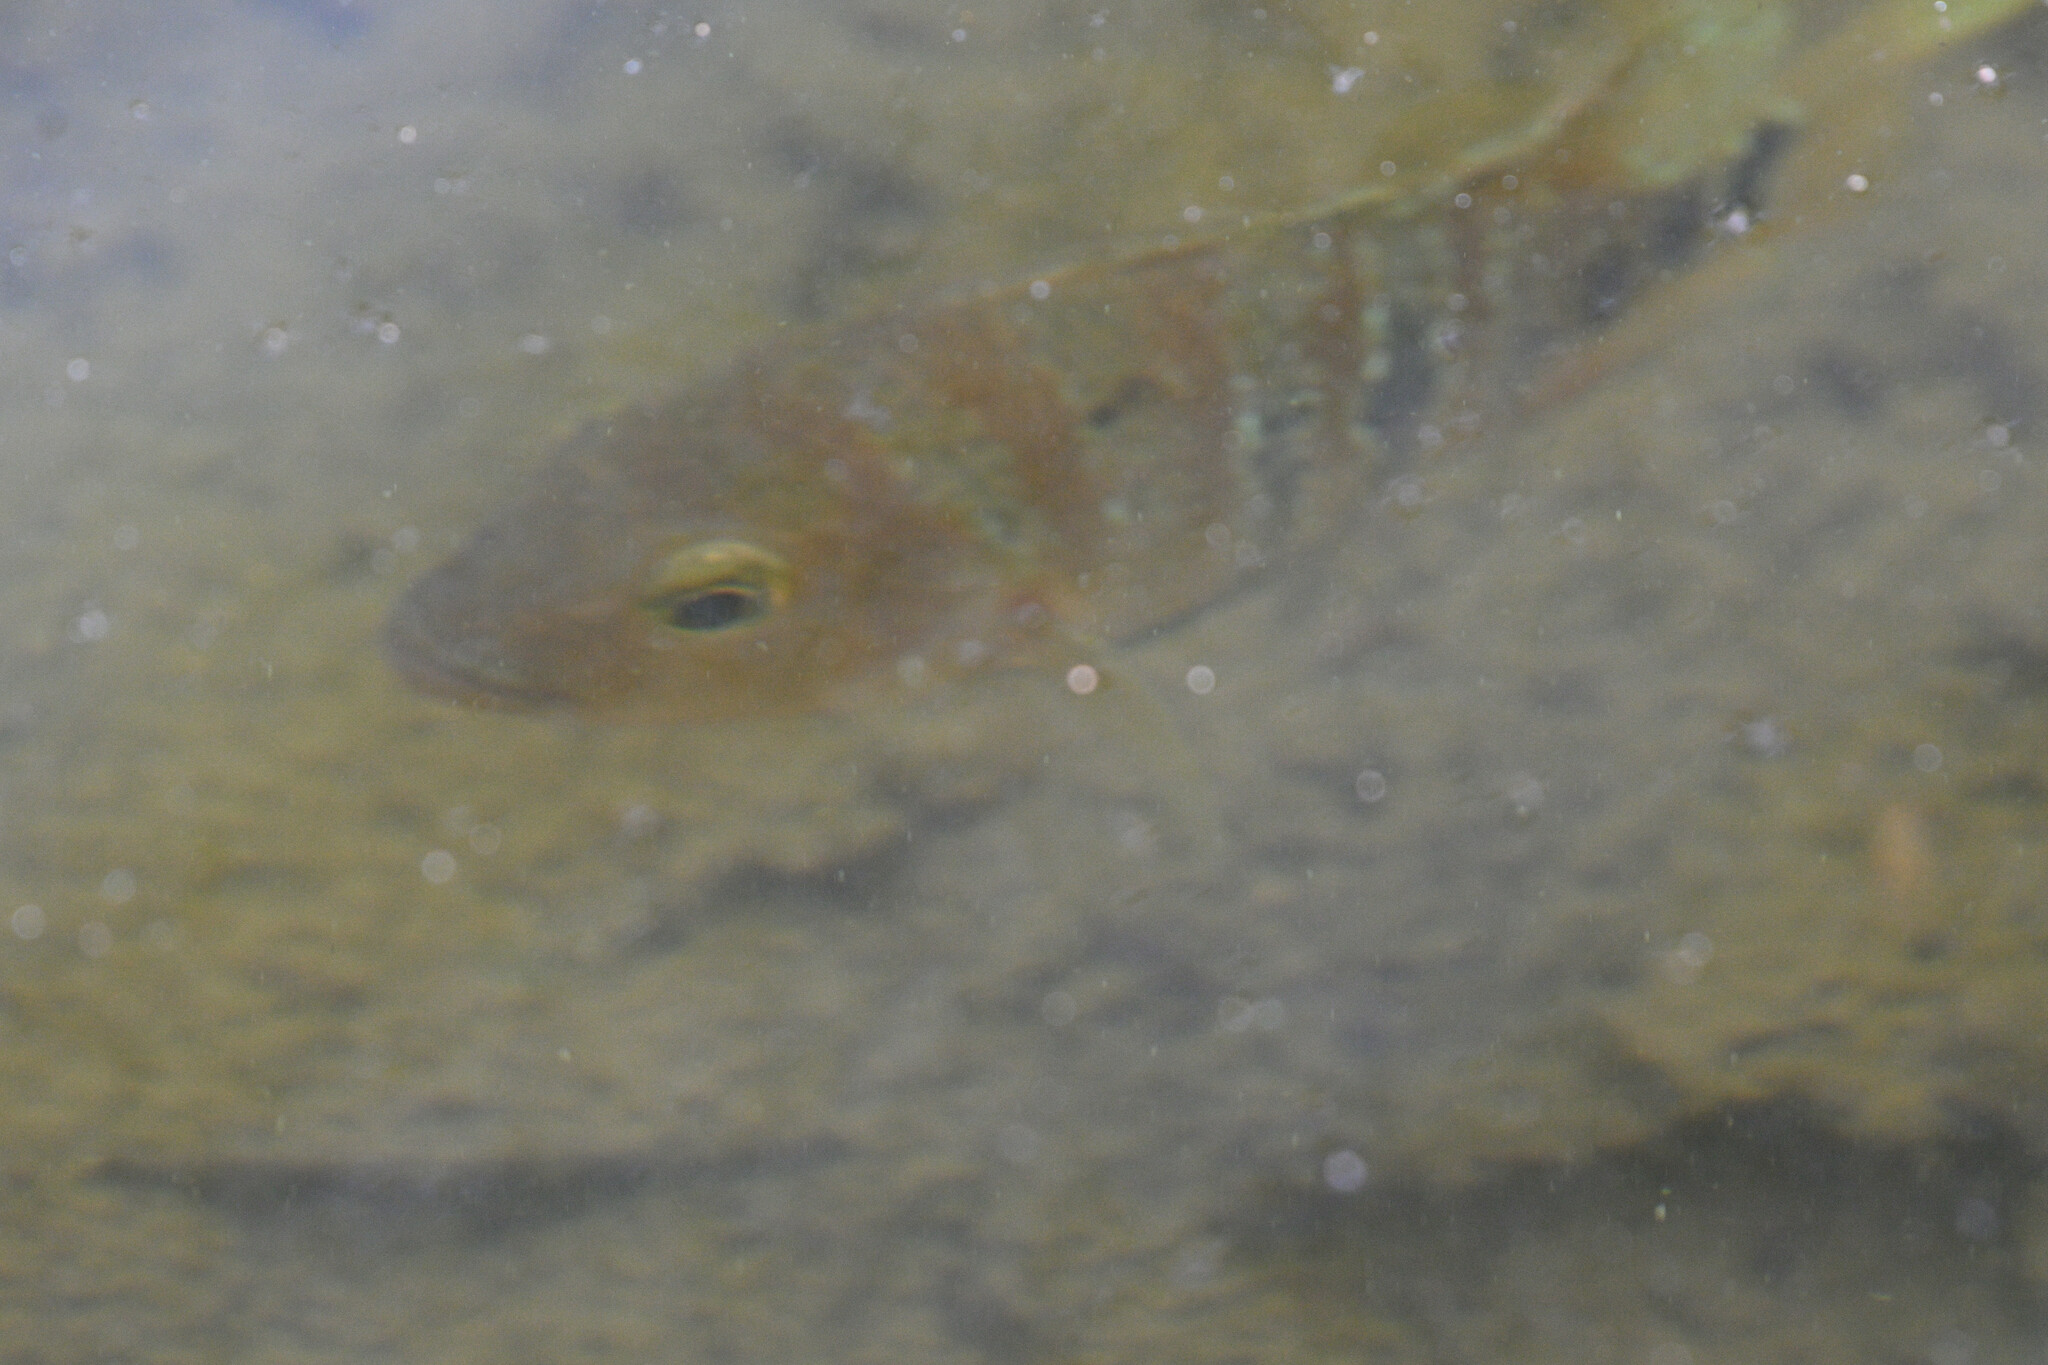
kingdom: Animalia
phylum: Chordata
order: Perciformes
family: Cichlidae
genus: Mayaheros
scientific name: Mayaheros urophthalmus
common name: Mayan cichlid
